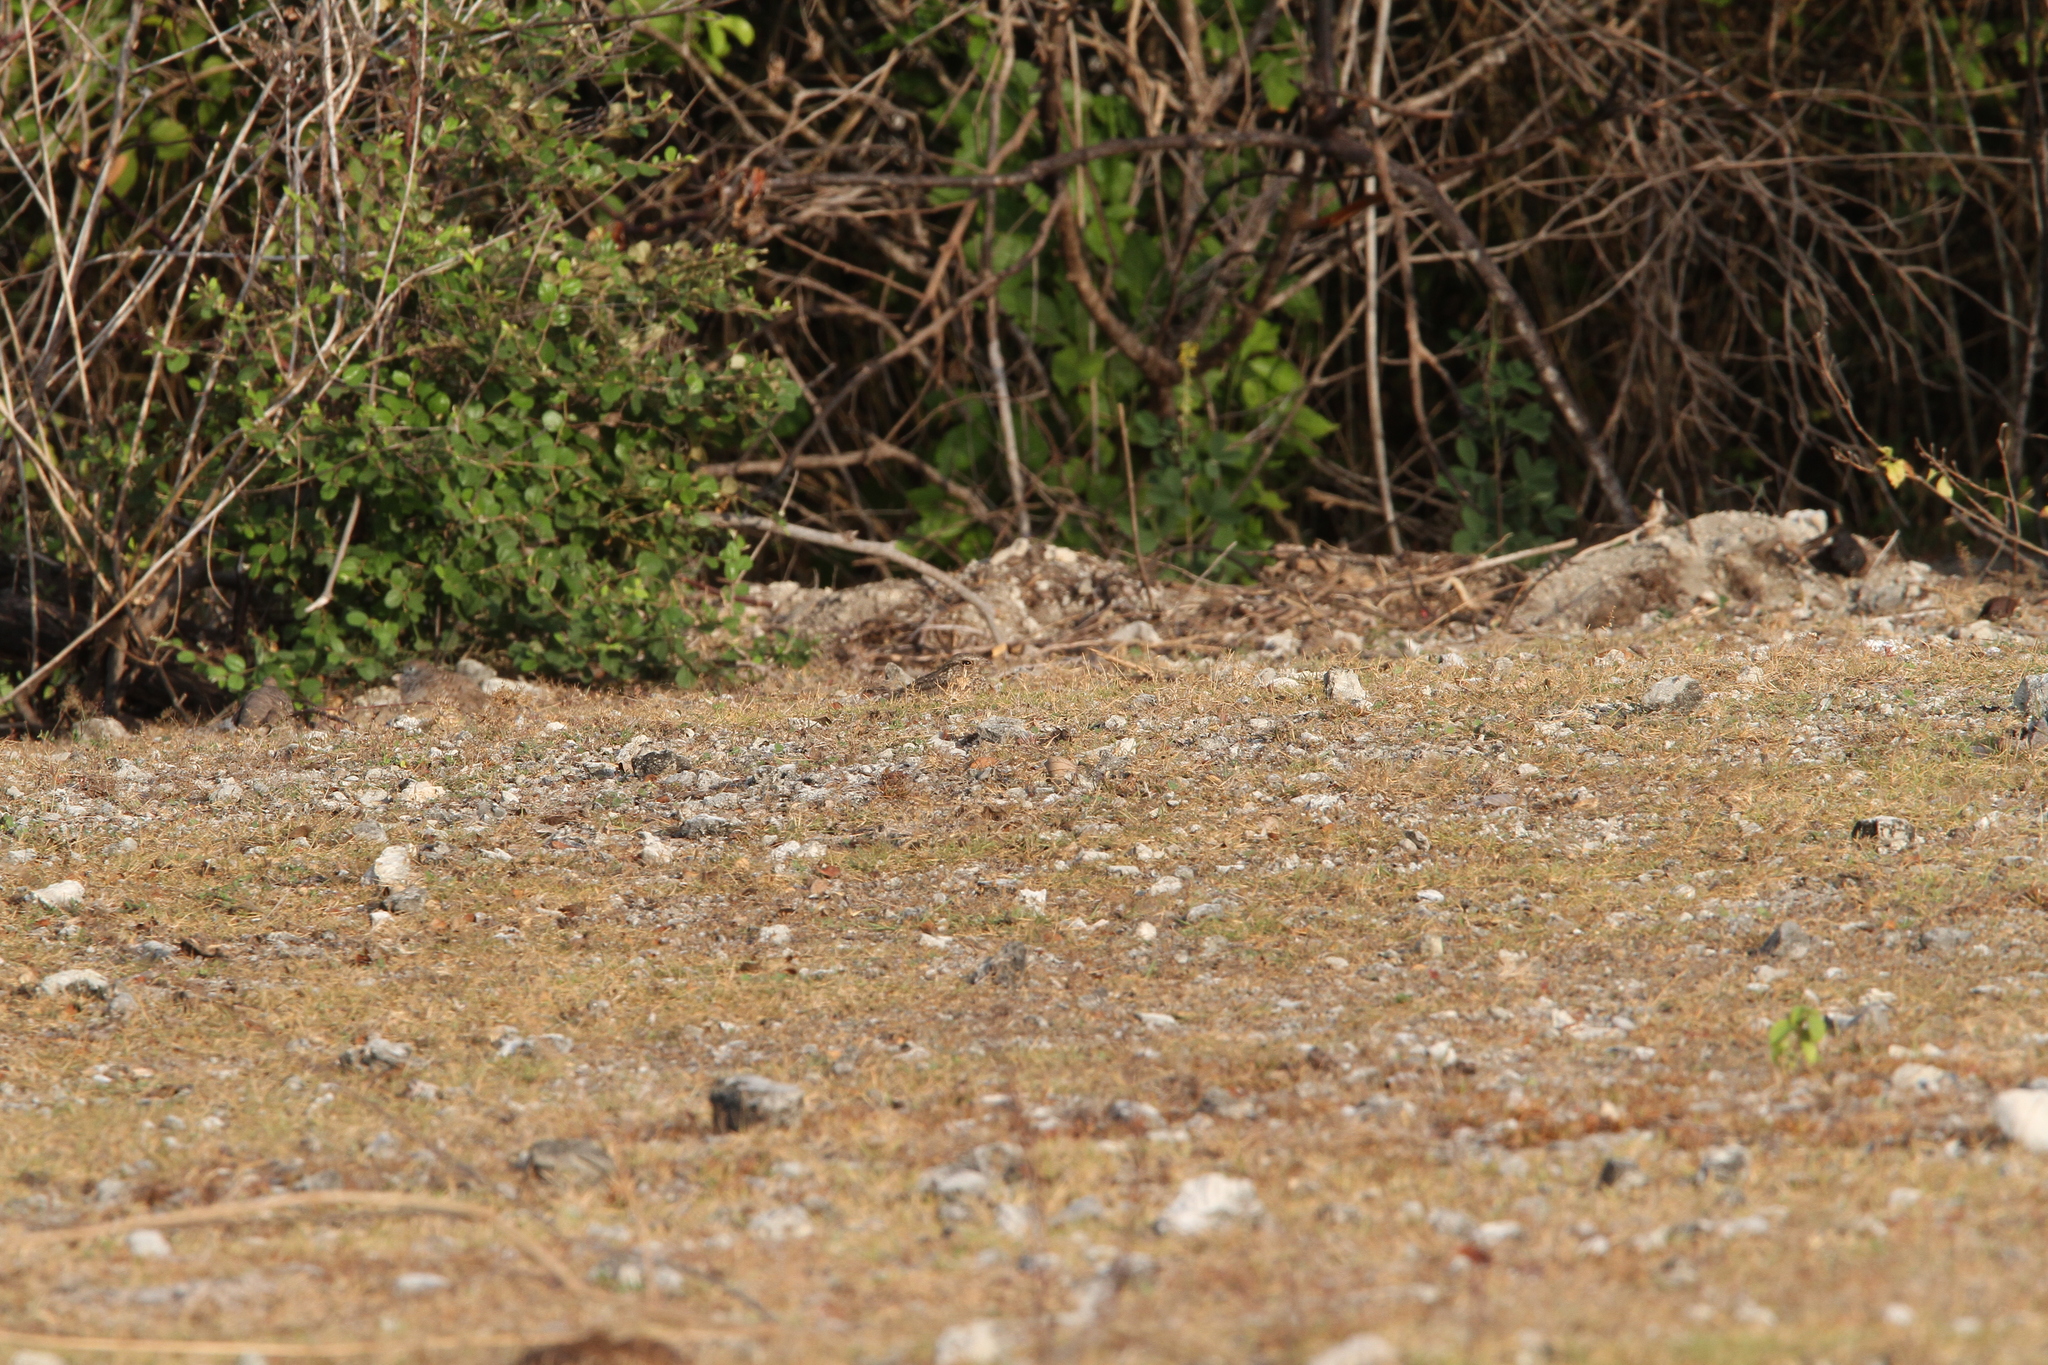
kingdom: Animalia
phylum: Chordata
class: Aves
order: Caprimulgiformes
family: Caprimulgidae
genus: Caprimulgus
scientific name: Caprimulgus affinis
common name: Savanna nightjar
